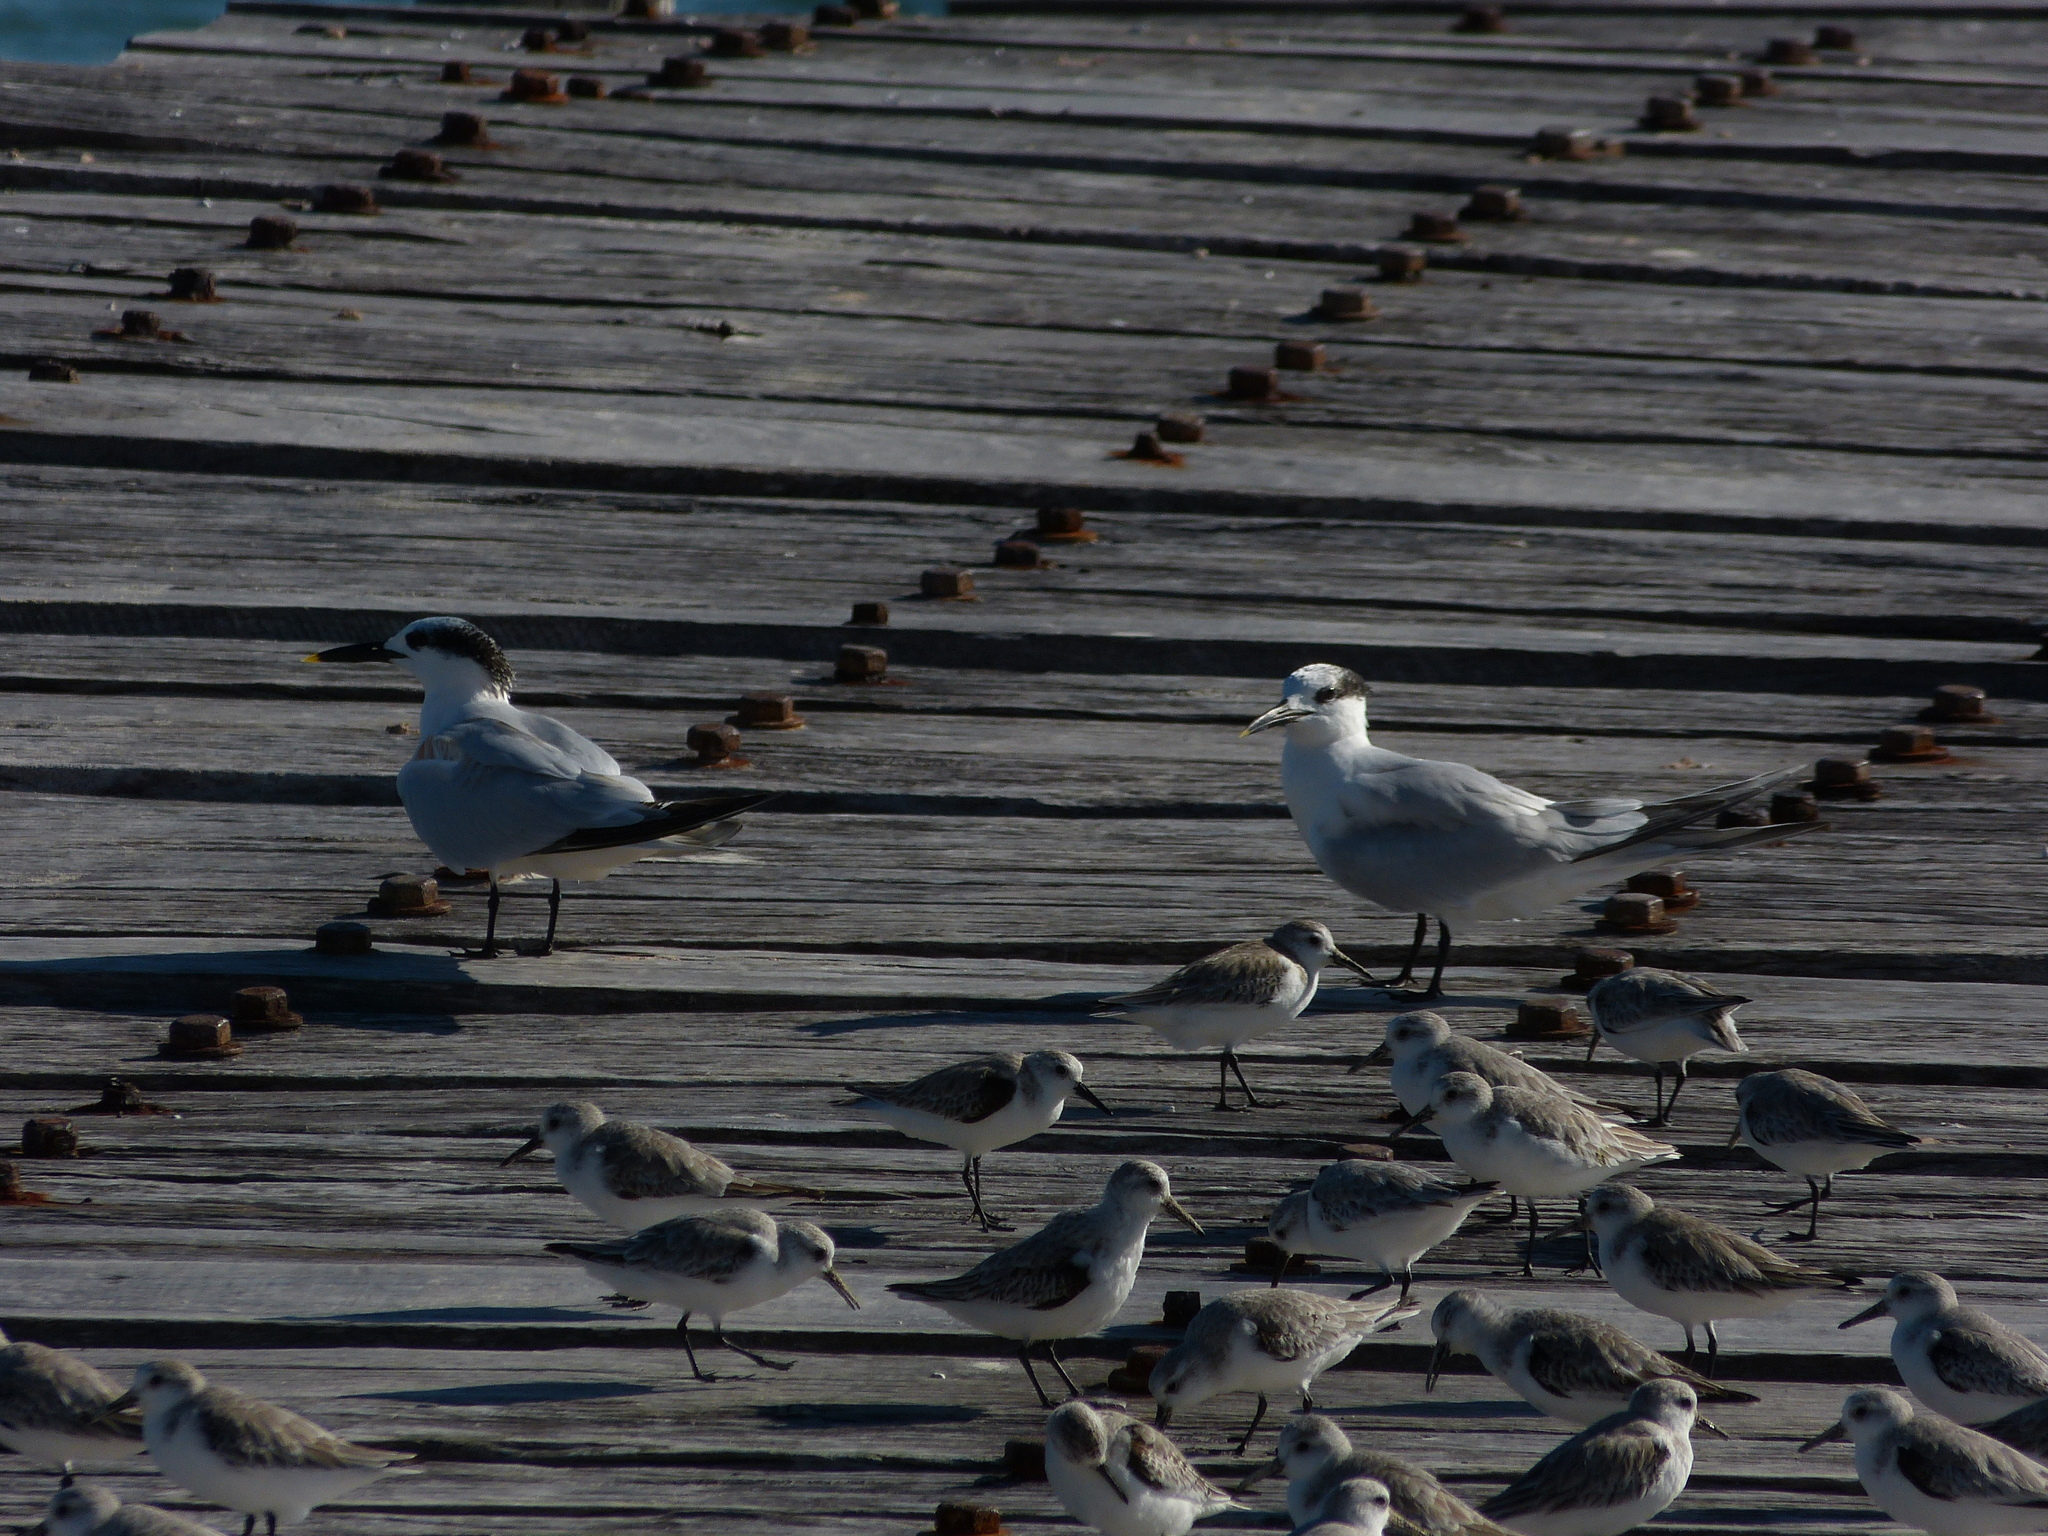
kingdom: Animalia
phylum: Chordata
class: Aves
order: Charadriiformes
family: Laridae
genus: Thalasseus
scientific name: Thalasseus sandvicensis
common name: Sandwich tern
